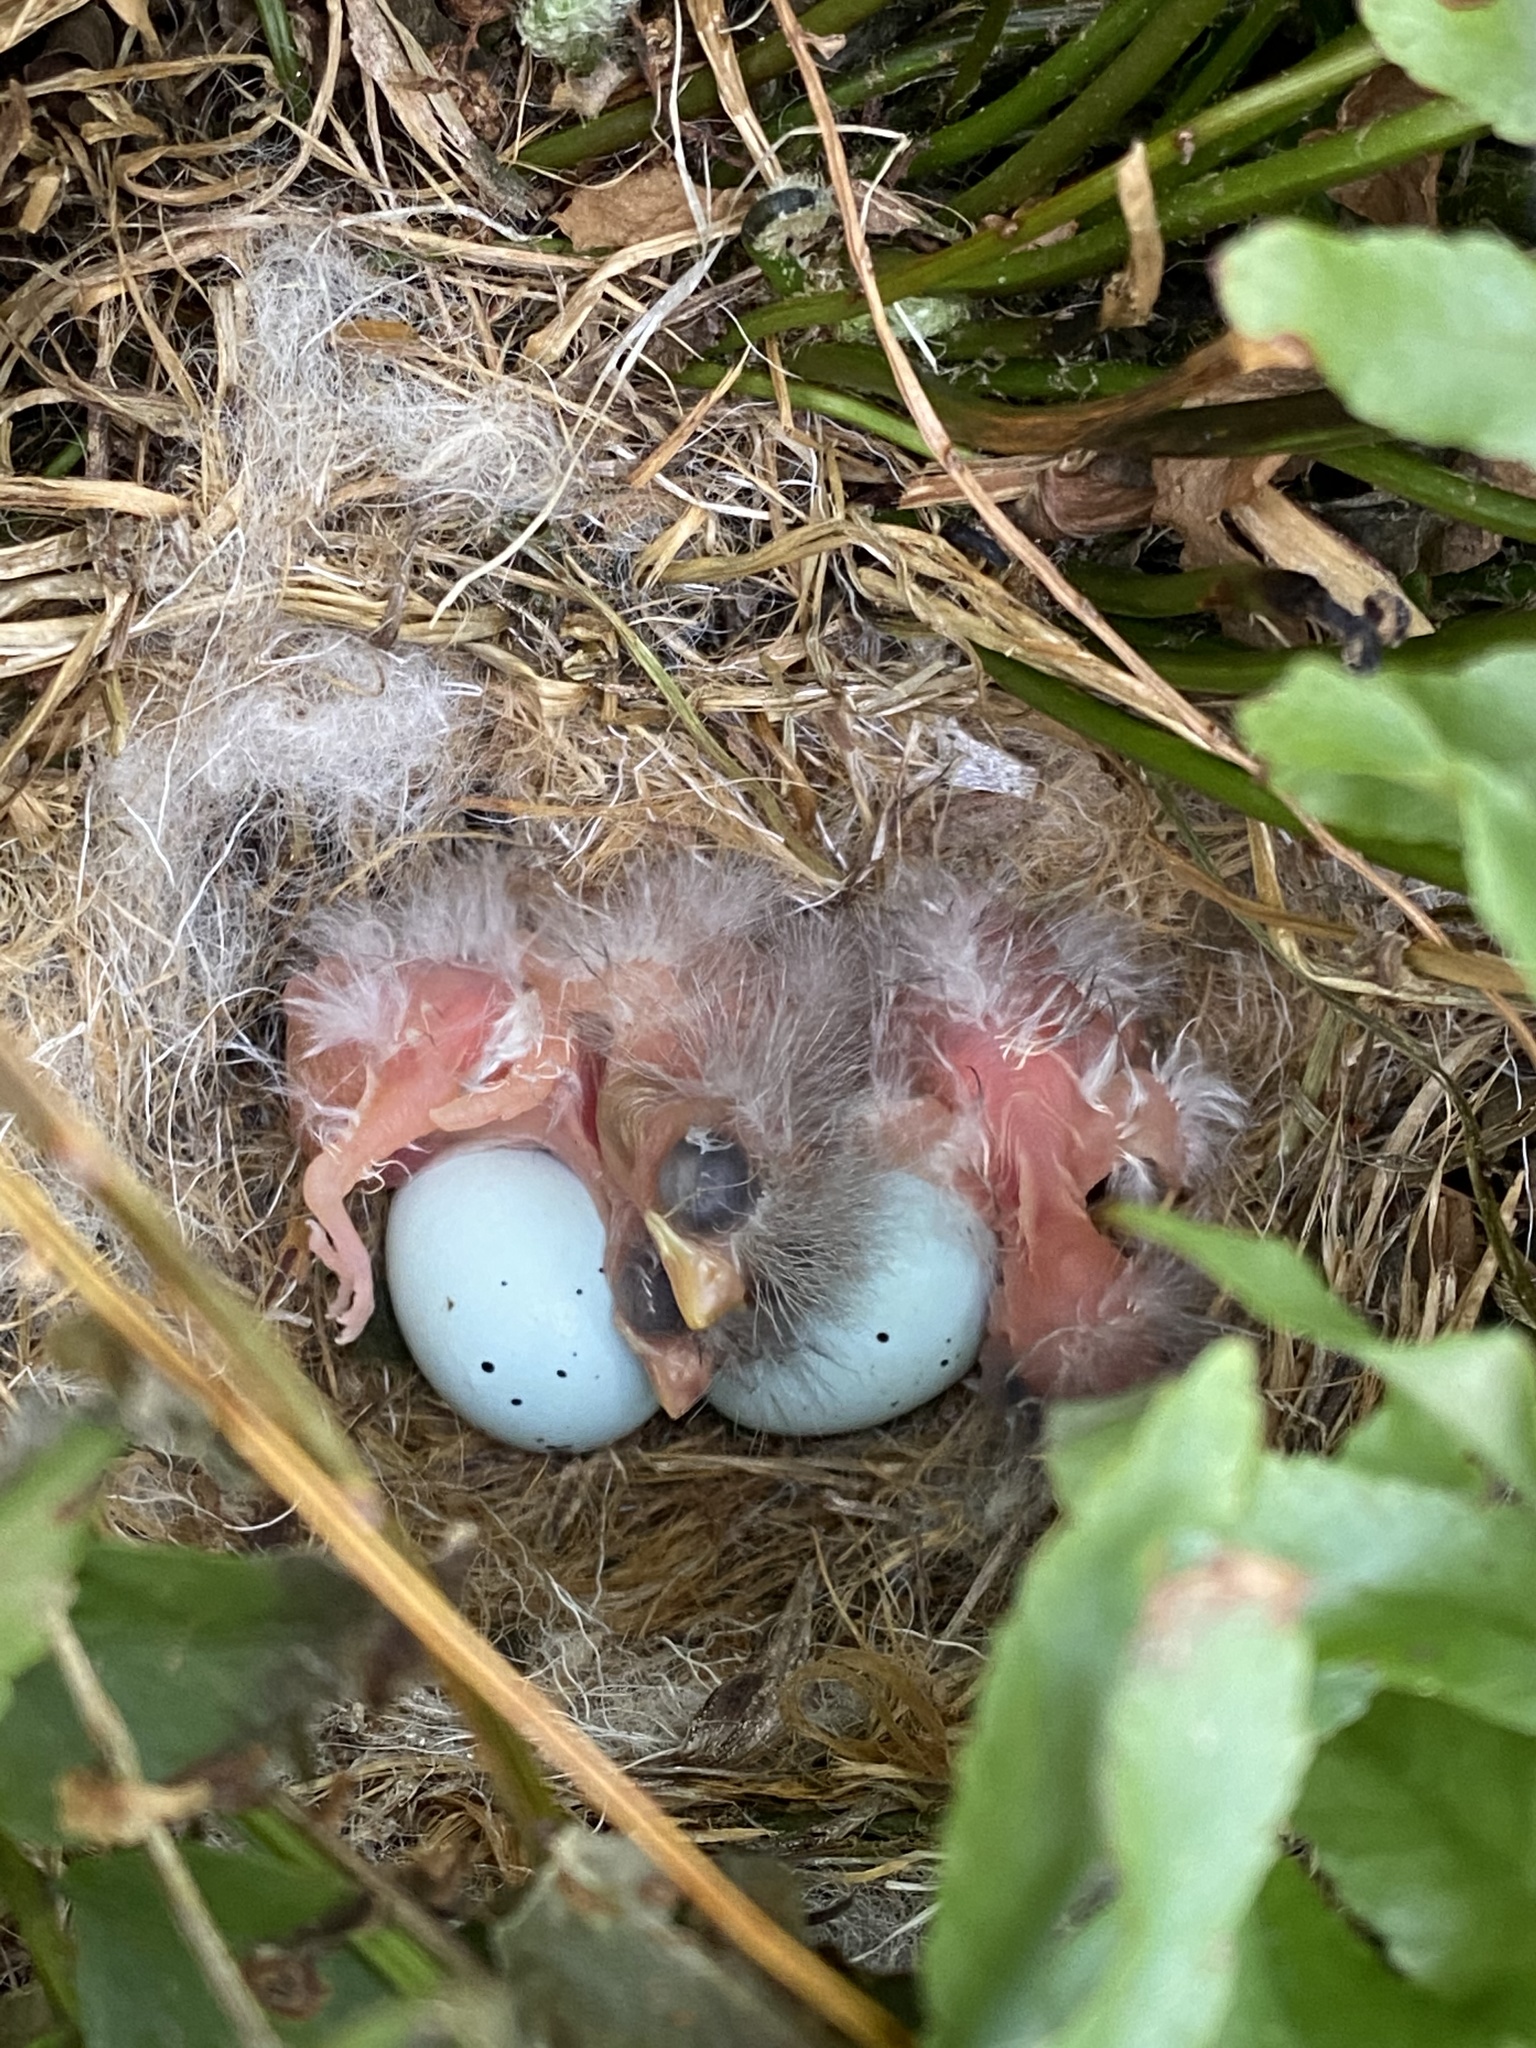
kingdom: Animalia
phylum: Chordata
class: Aves
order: Passeriformes
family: Fringillidae
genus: Haemorhous
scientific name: Haemorhous mexicanus
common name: House finch
